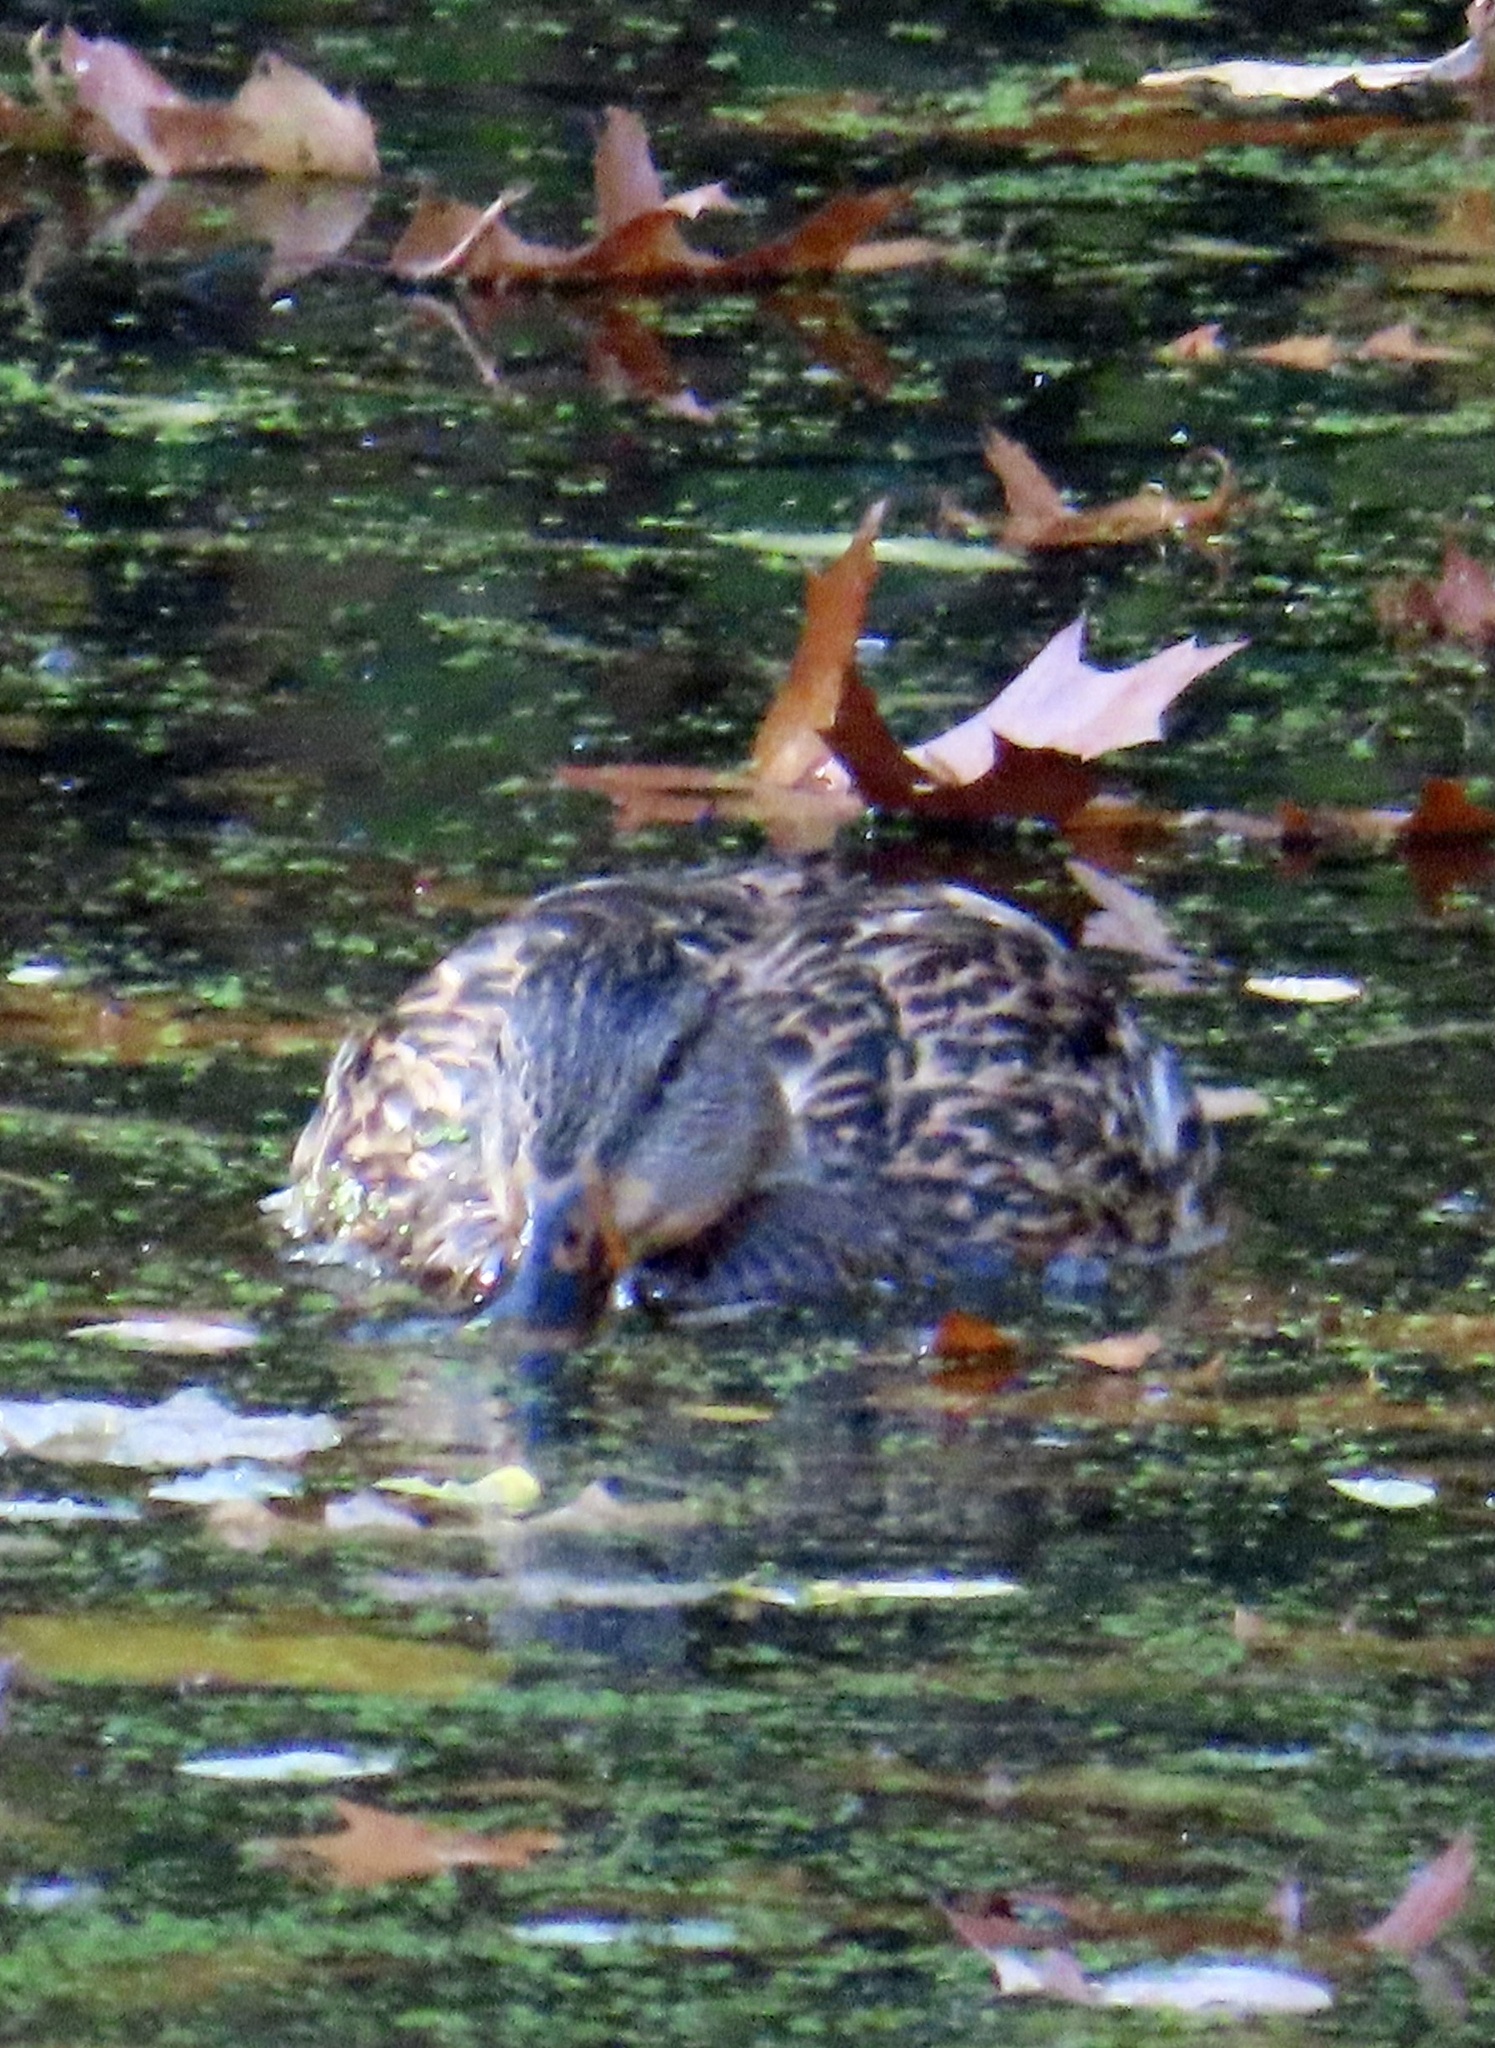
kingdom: Animalia
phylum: Chordata
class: Aves
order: Anseriformes
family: Anatidae
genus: Anas
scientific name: Anas platyrhynchos
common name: Mallard
